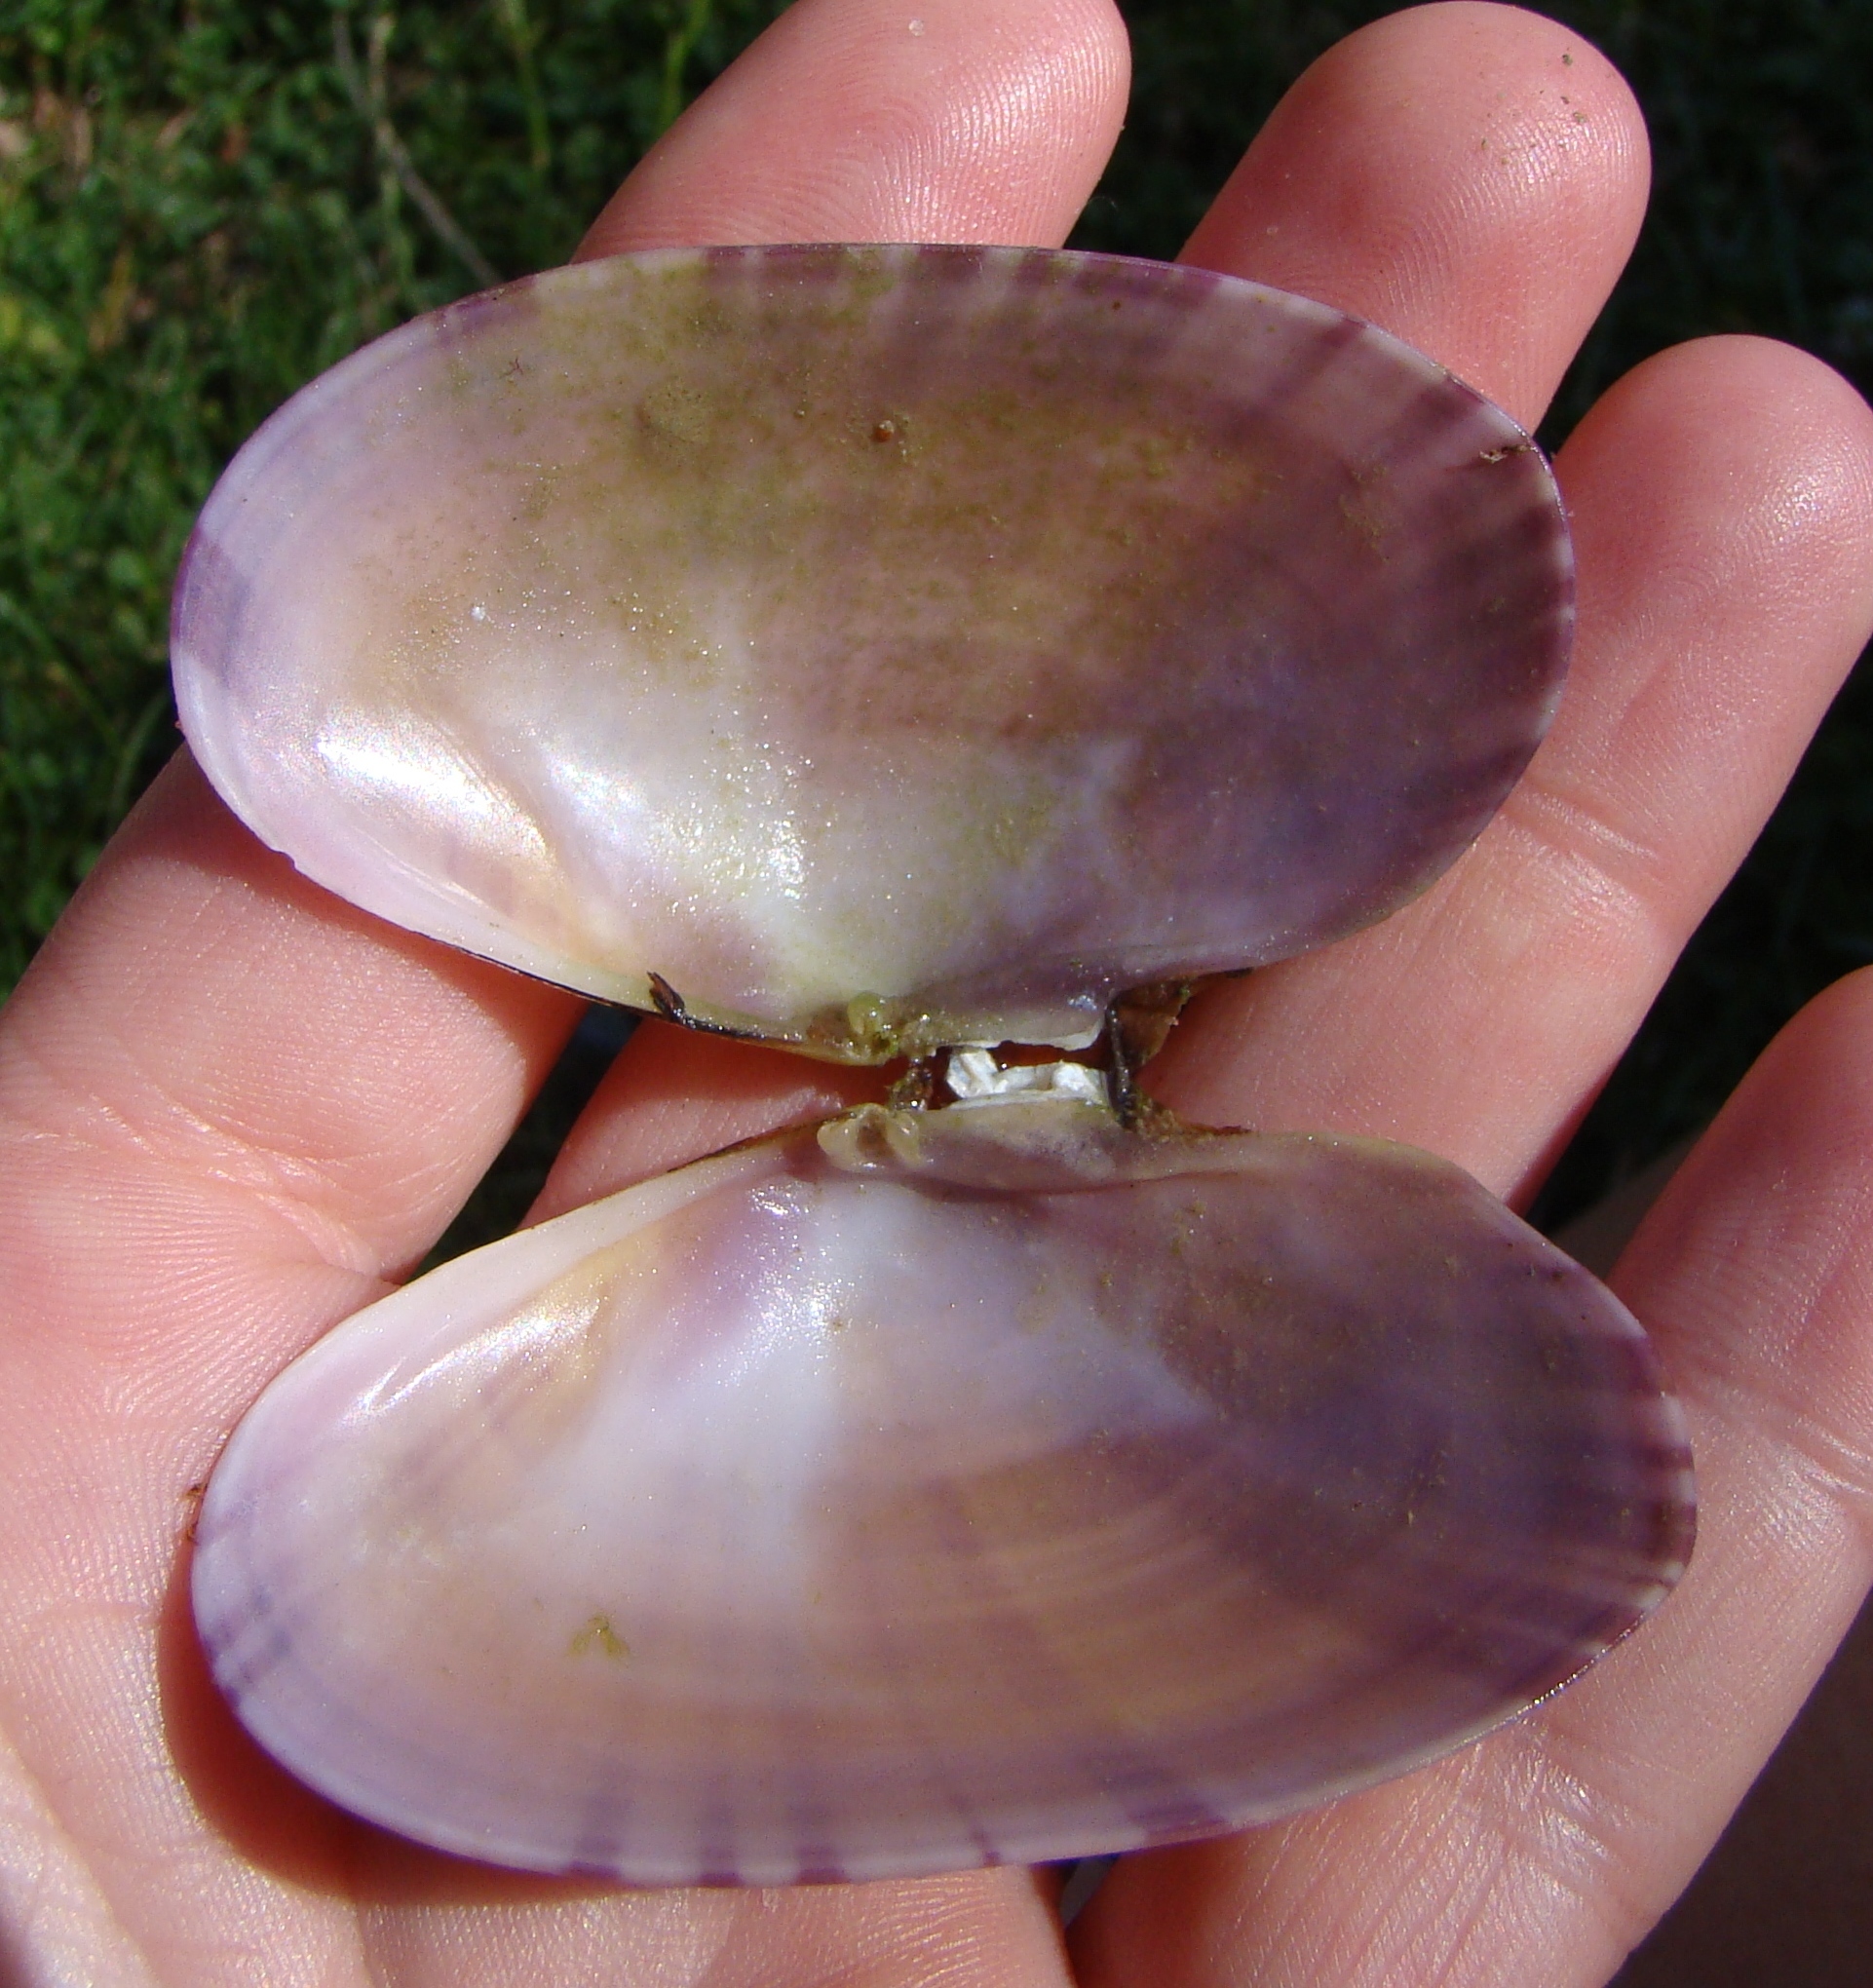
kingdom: Animalia
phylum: Mollusca
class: Bivalvia
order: Cardiida
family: Psammobiidae
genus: Gari
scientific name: Gari stangeri
